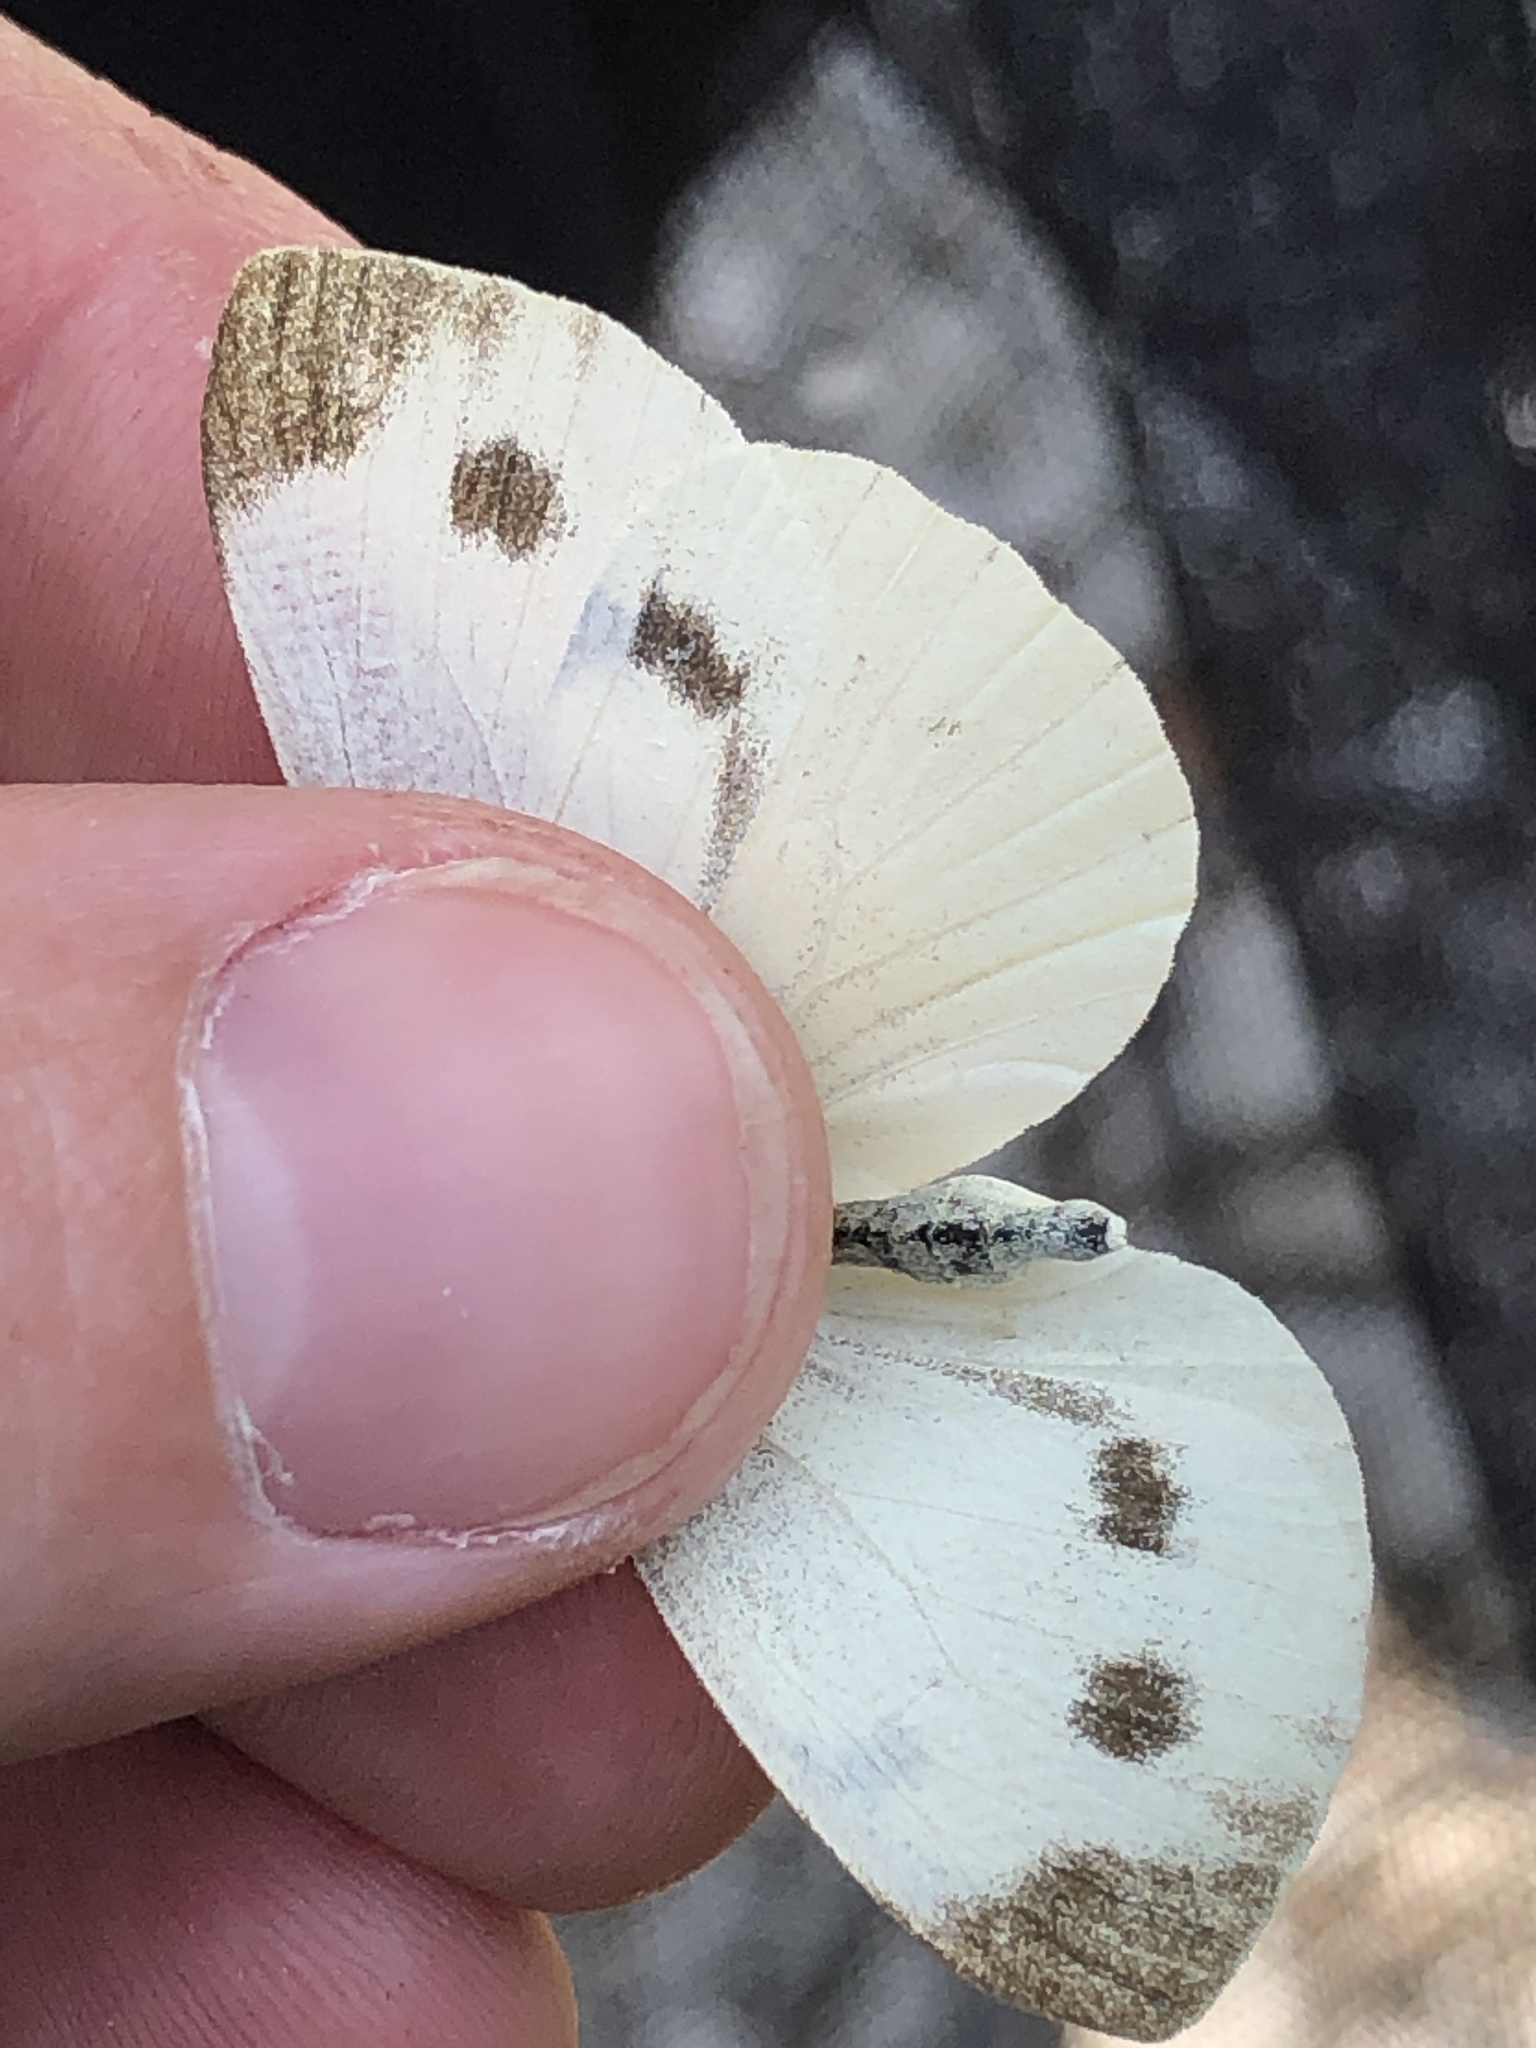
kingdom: Animalia
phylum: Arthropoda
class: Insecta
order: Lepidoptera
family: Pieridae
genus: Pieris
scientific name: Pieris mannii
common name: Southern small white
